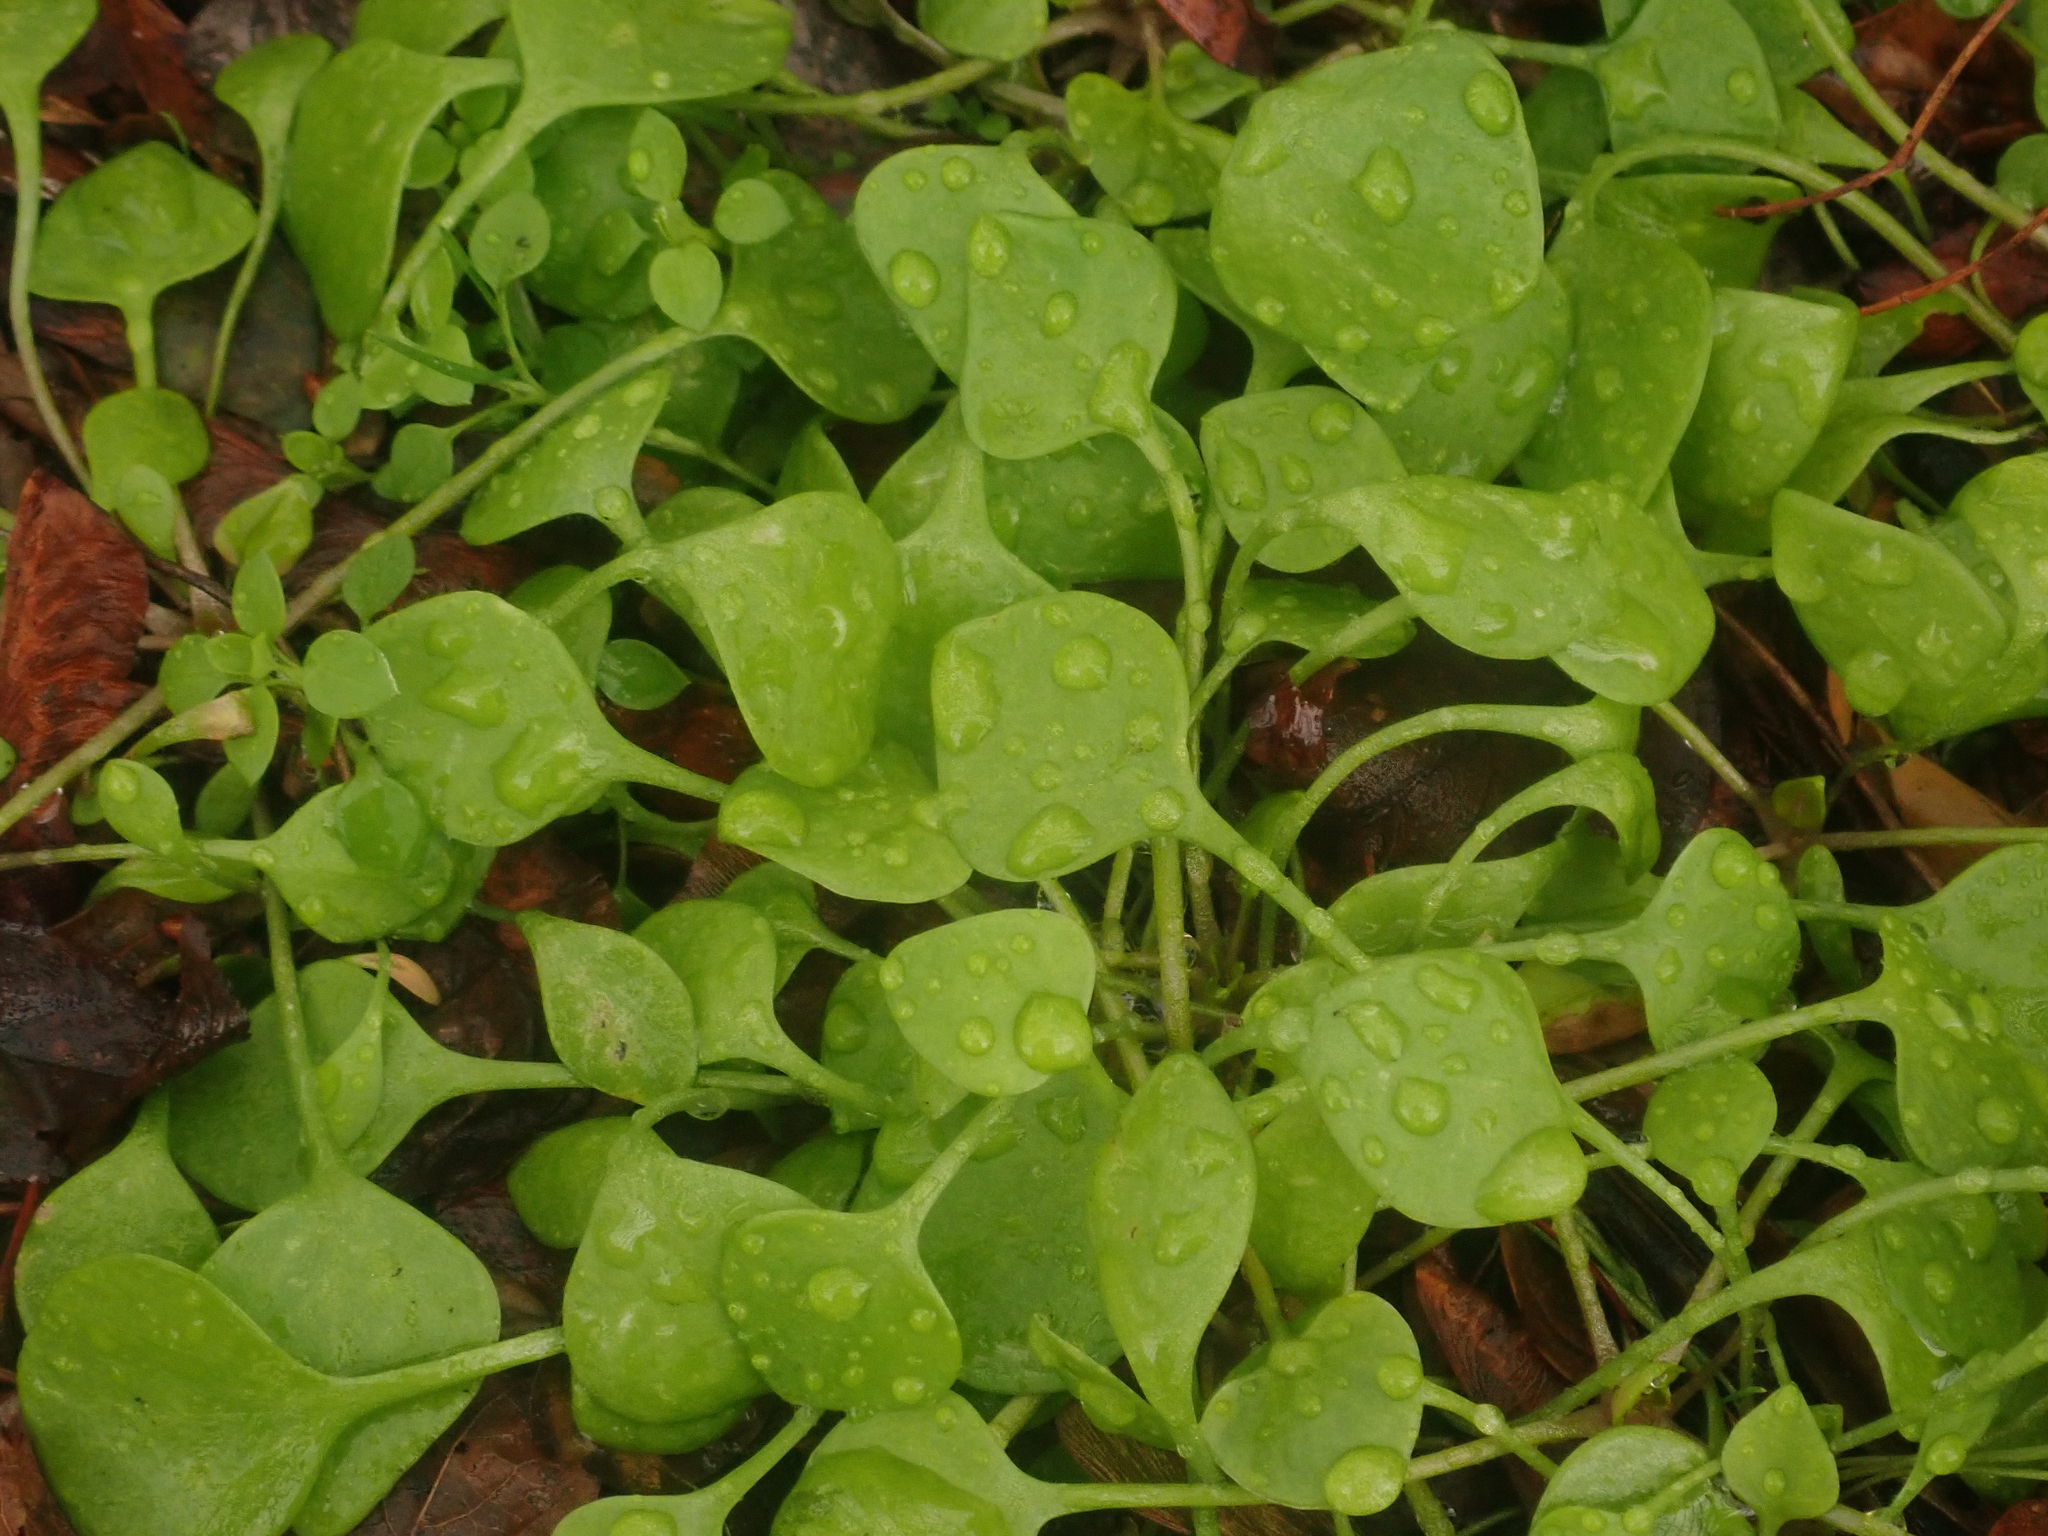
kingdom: Plantae
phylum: Tracheophyta
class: Magnoliopsida
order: Caryophyllales
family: Montiaceae
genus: Claytonia
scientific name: Claytonia perfoliata
